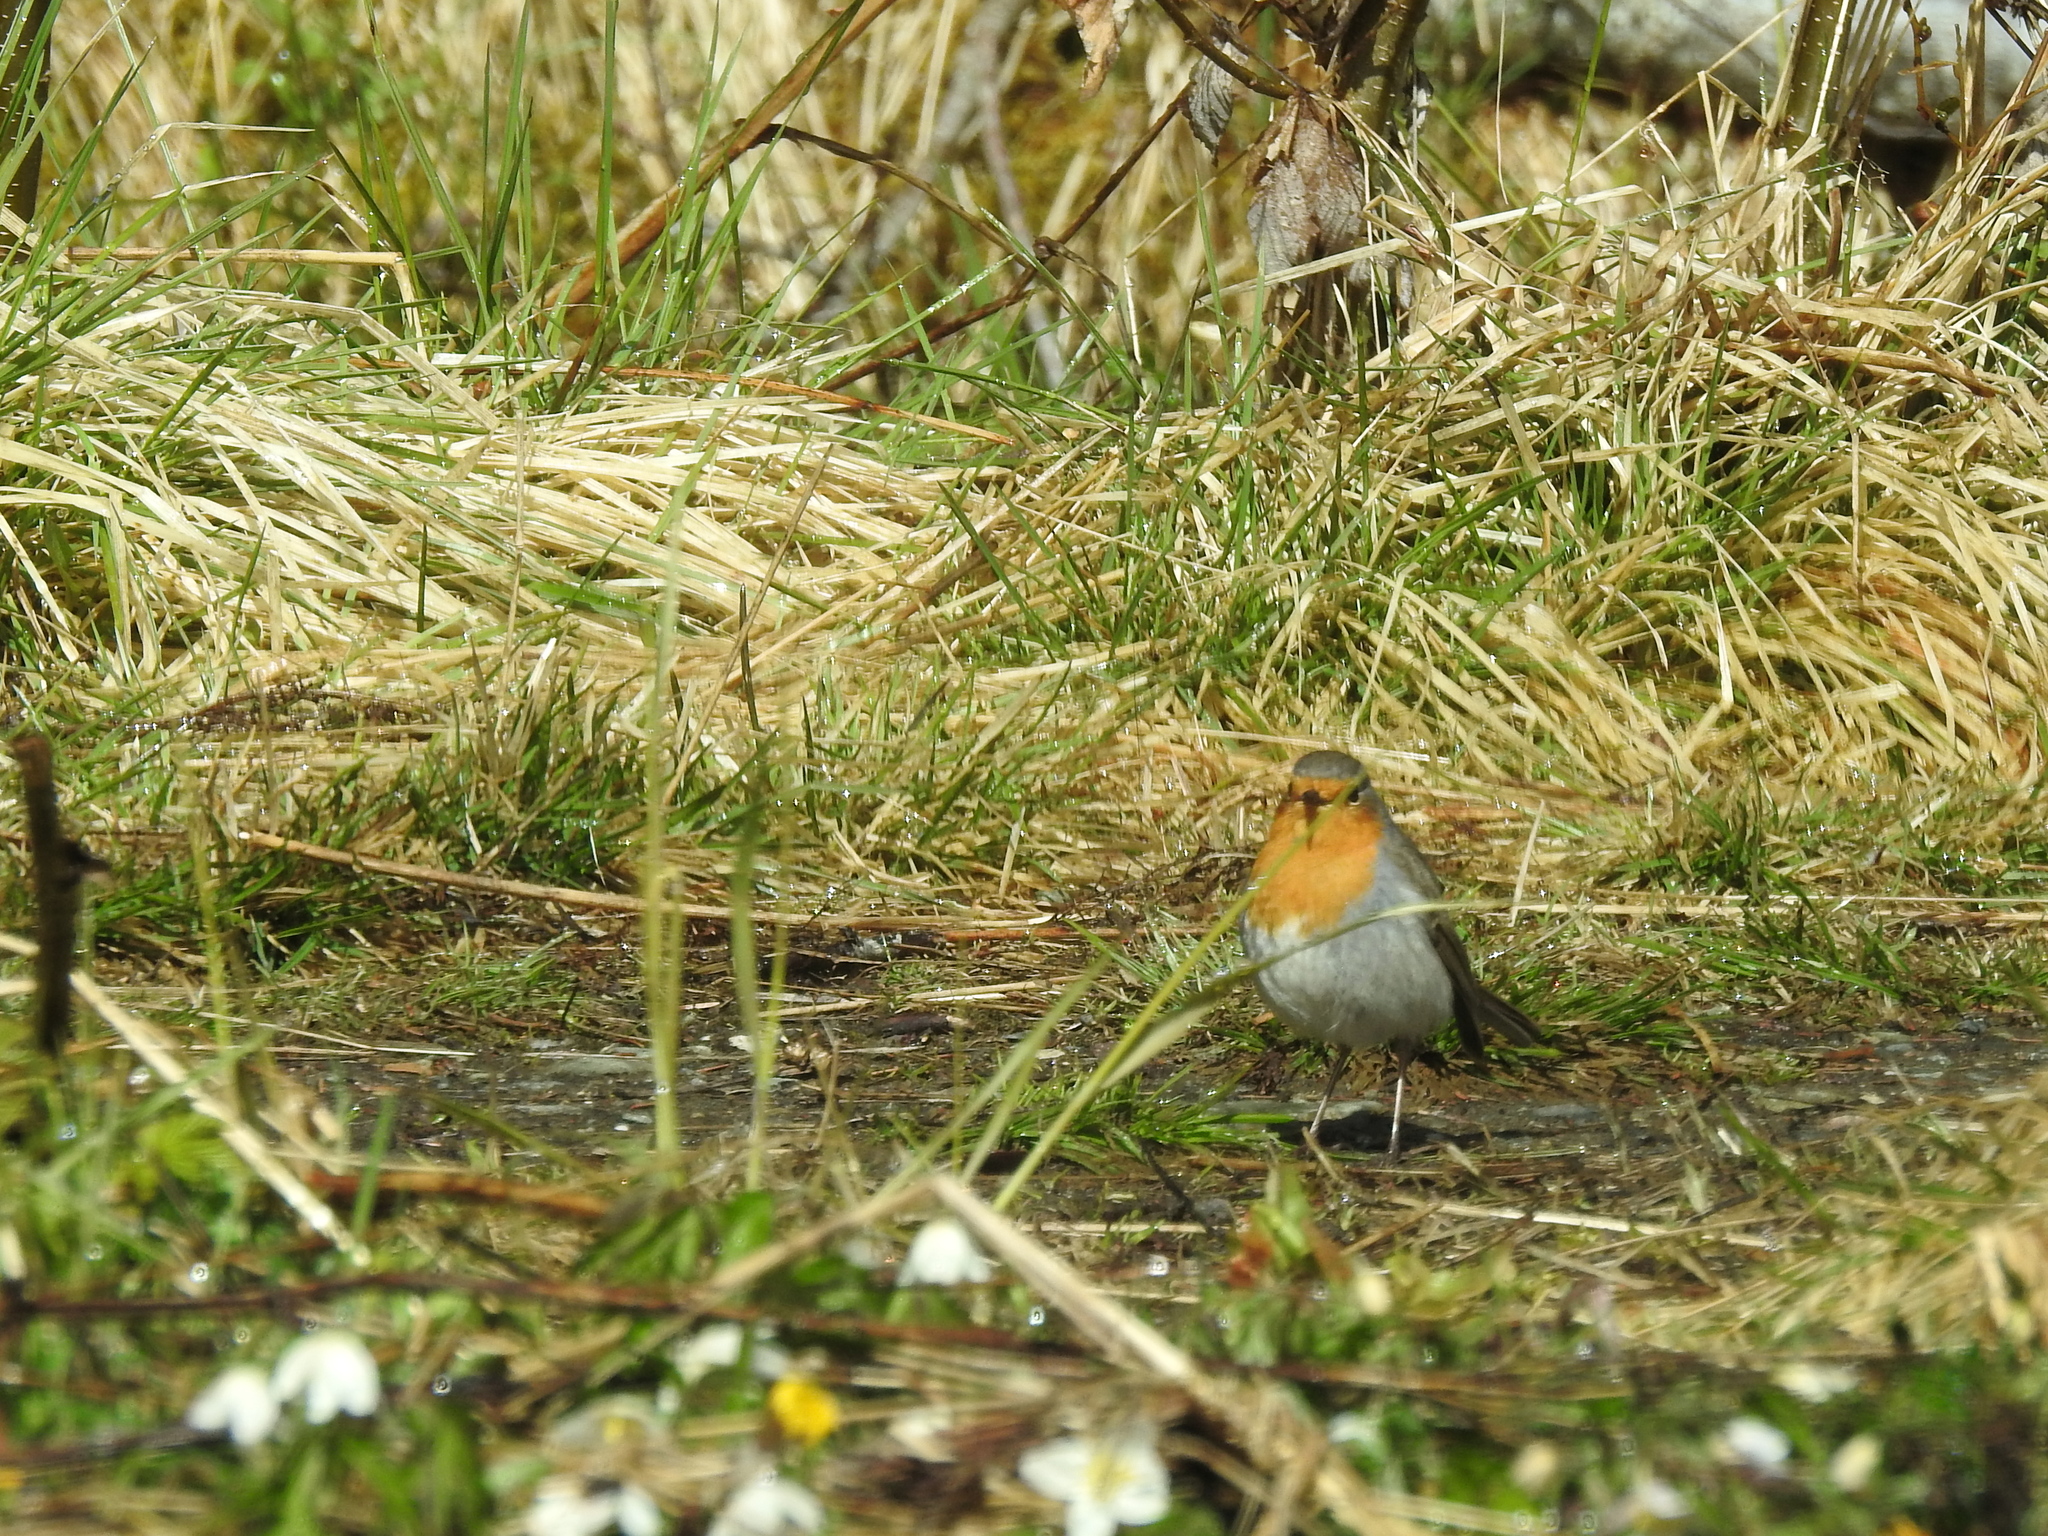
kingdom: Animalia
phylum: Chordata
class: Aves
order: Passeriformes
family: Muscicapidae
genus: Erithacus
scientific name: Erithacus rubecula
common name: European robin
